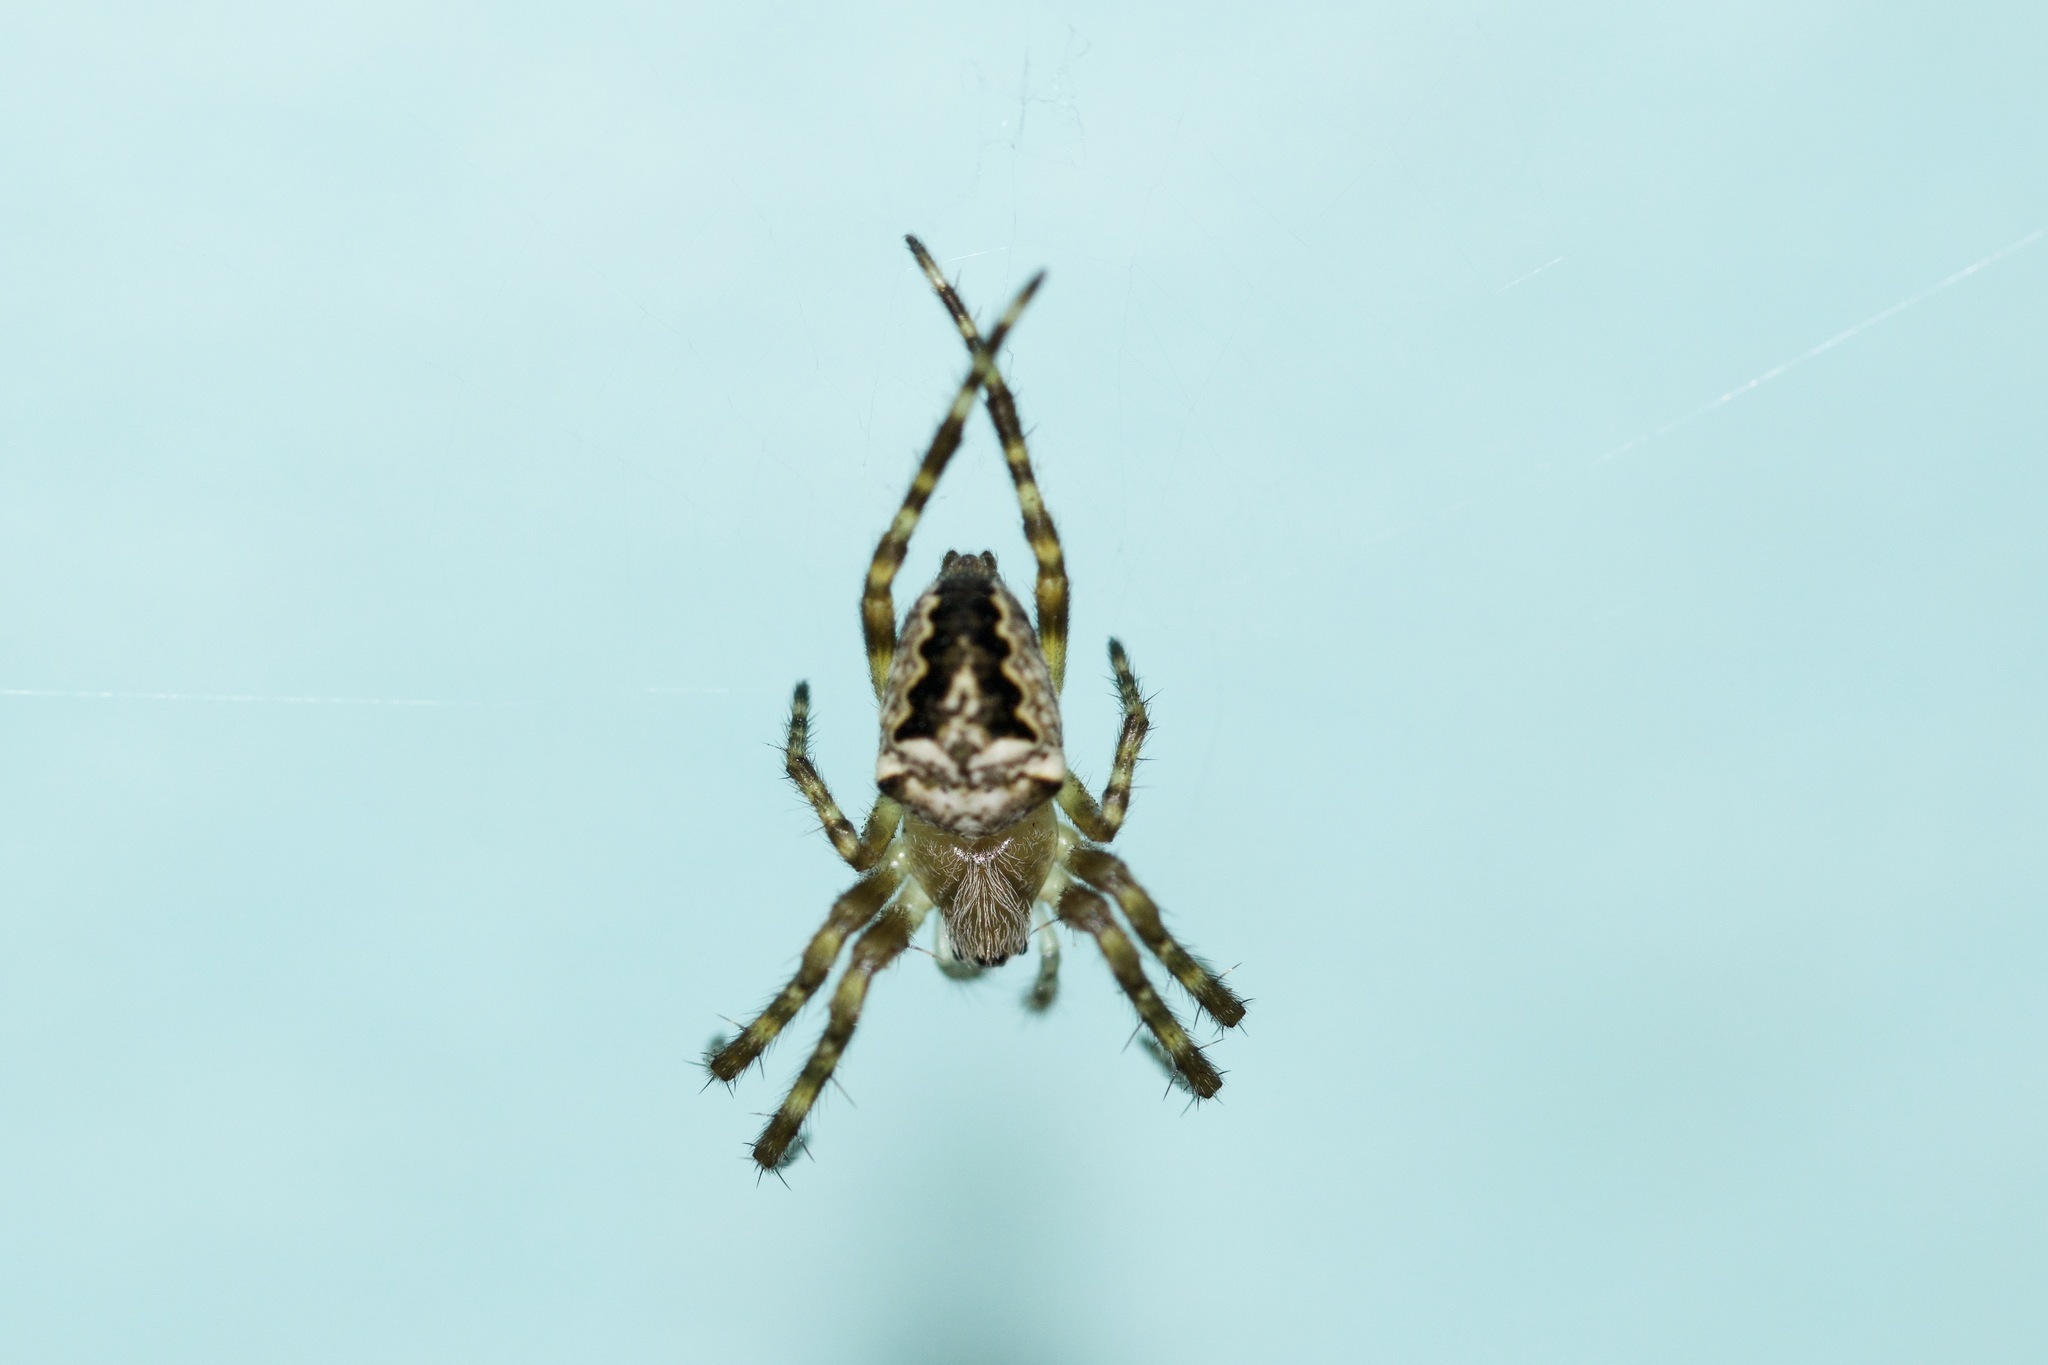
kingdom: Animalia
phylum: Arthropoda
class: Arachnida
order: Araneae
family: Araneidae
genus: Araneus
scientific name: Araneus nordmanni
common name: Nordmann's orbweaver
